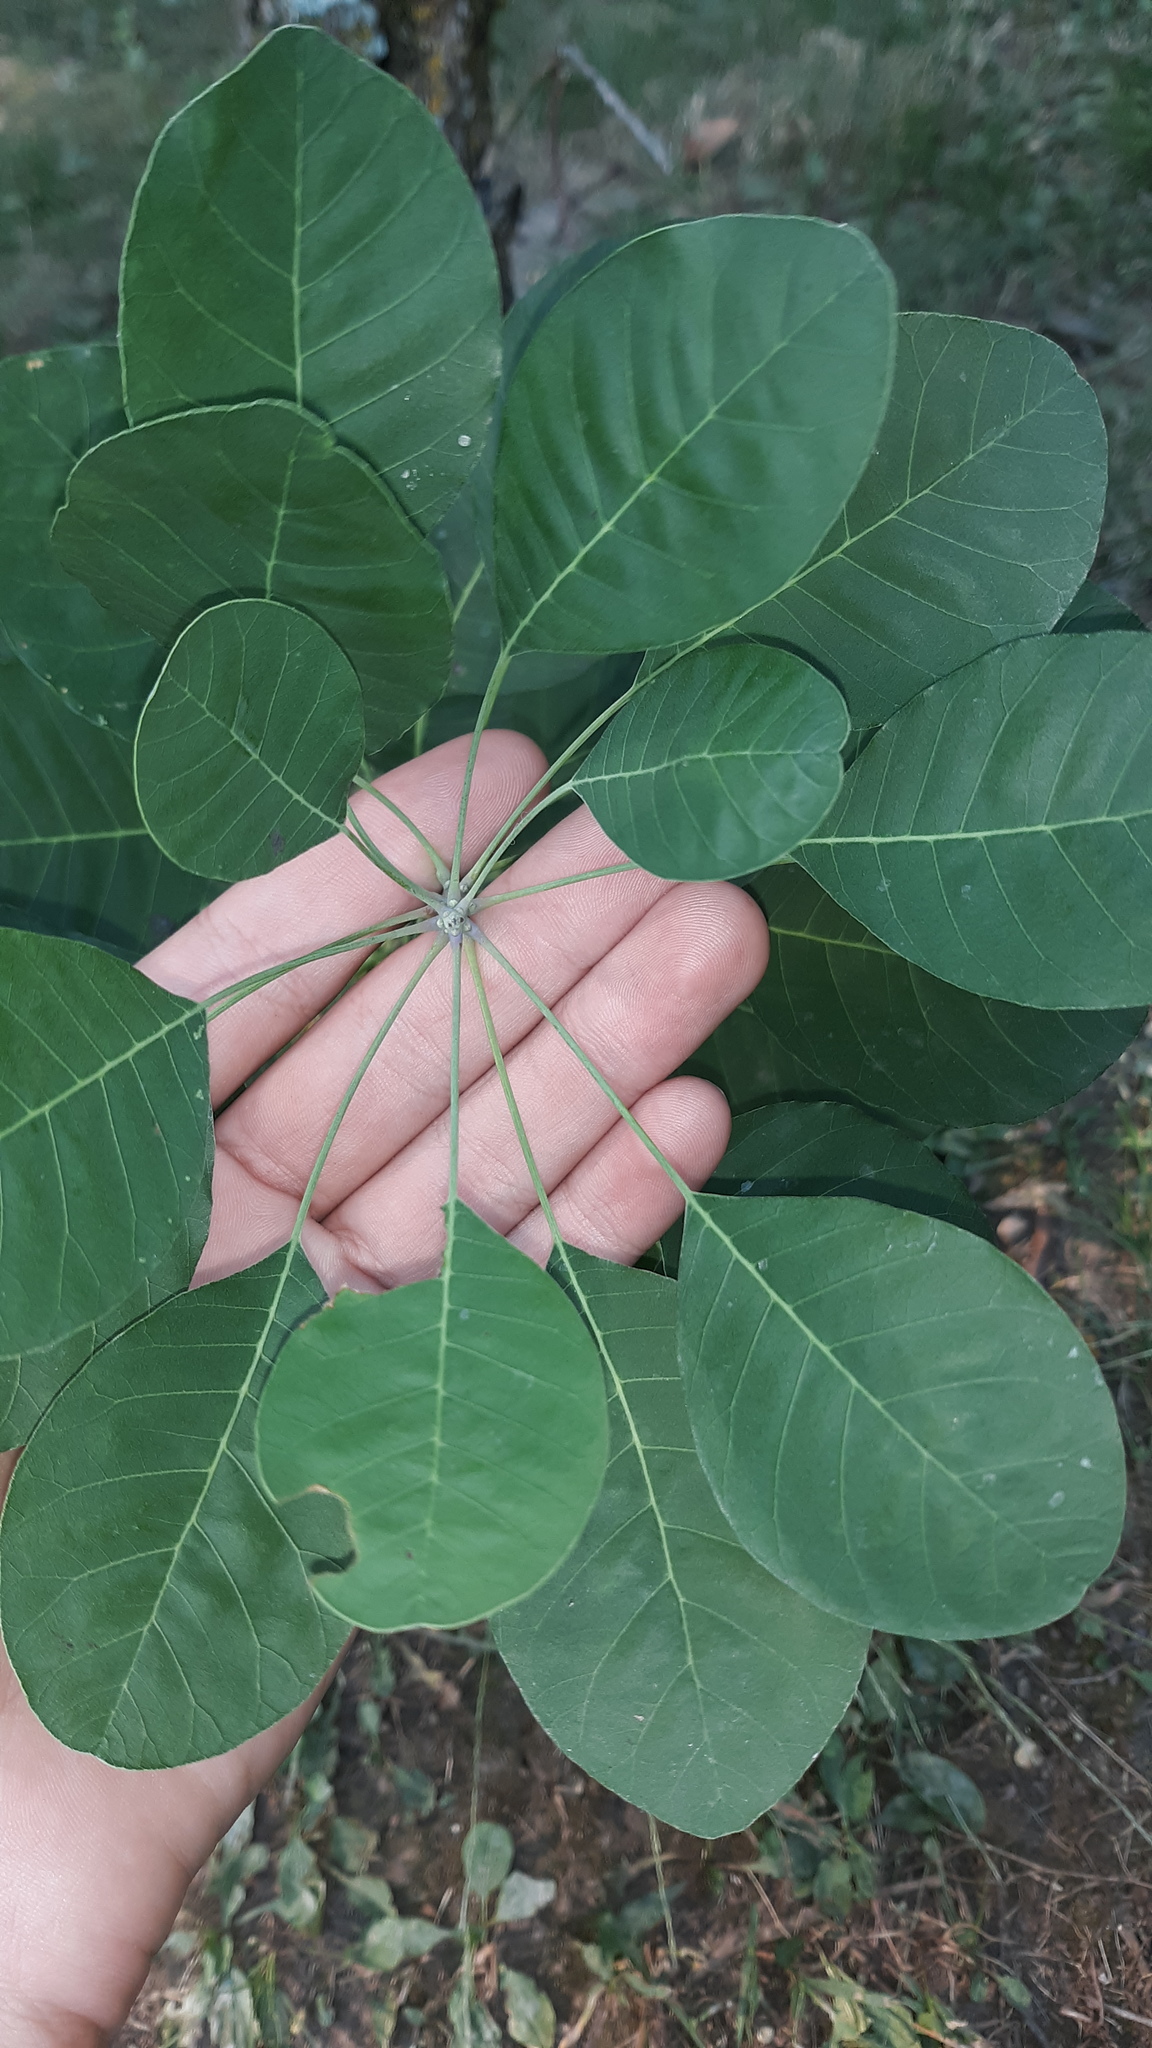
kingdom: Plantae
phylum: Tracheophyta
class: Magnoliopsida
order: Sapindales
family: Anacardiaceae
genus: Cotinus
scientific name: Cotinus obovatus
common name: Chittamwood
